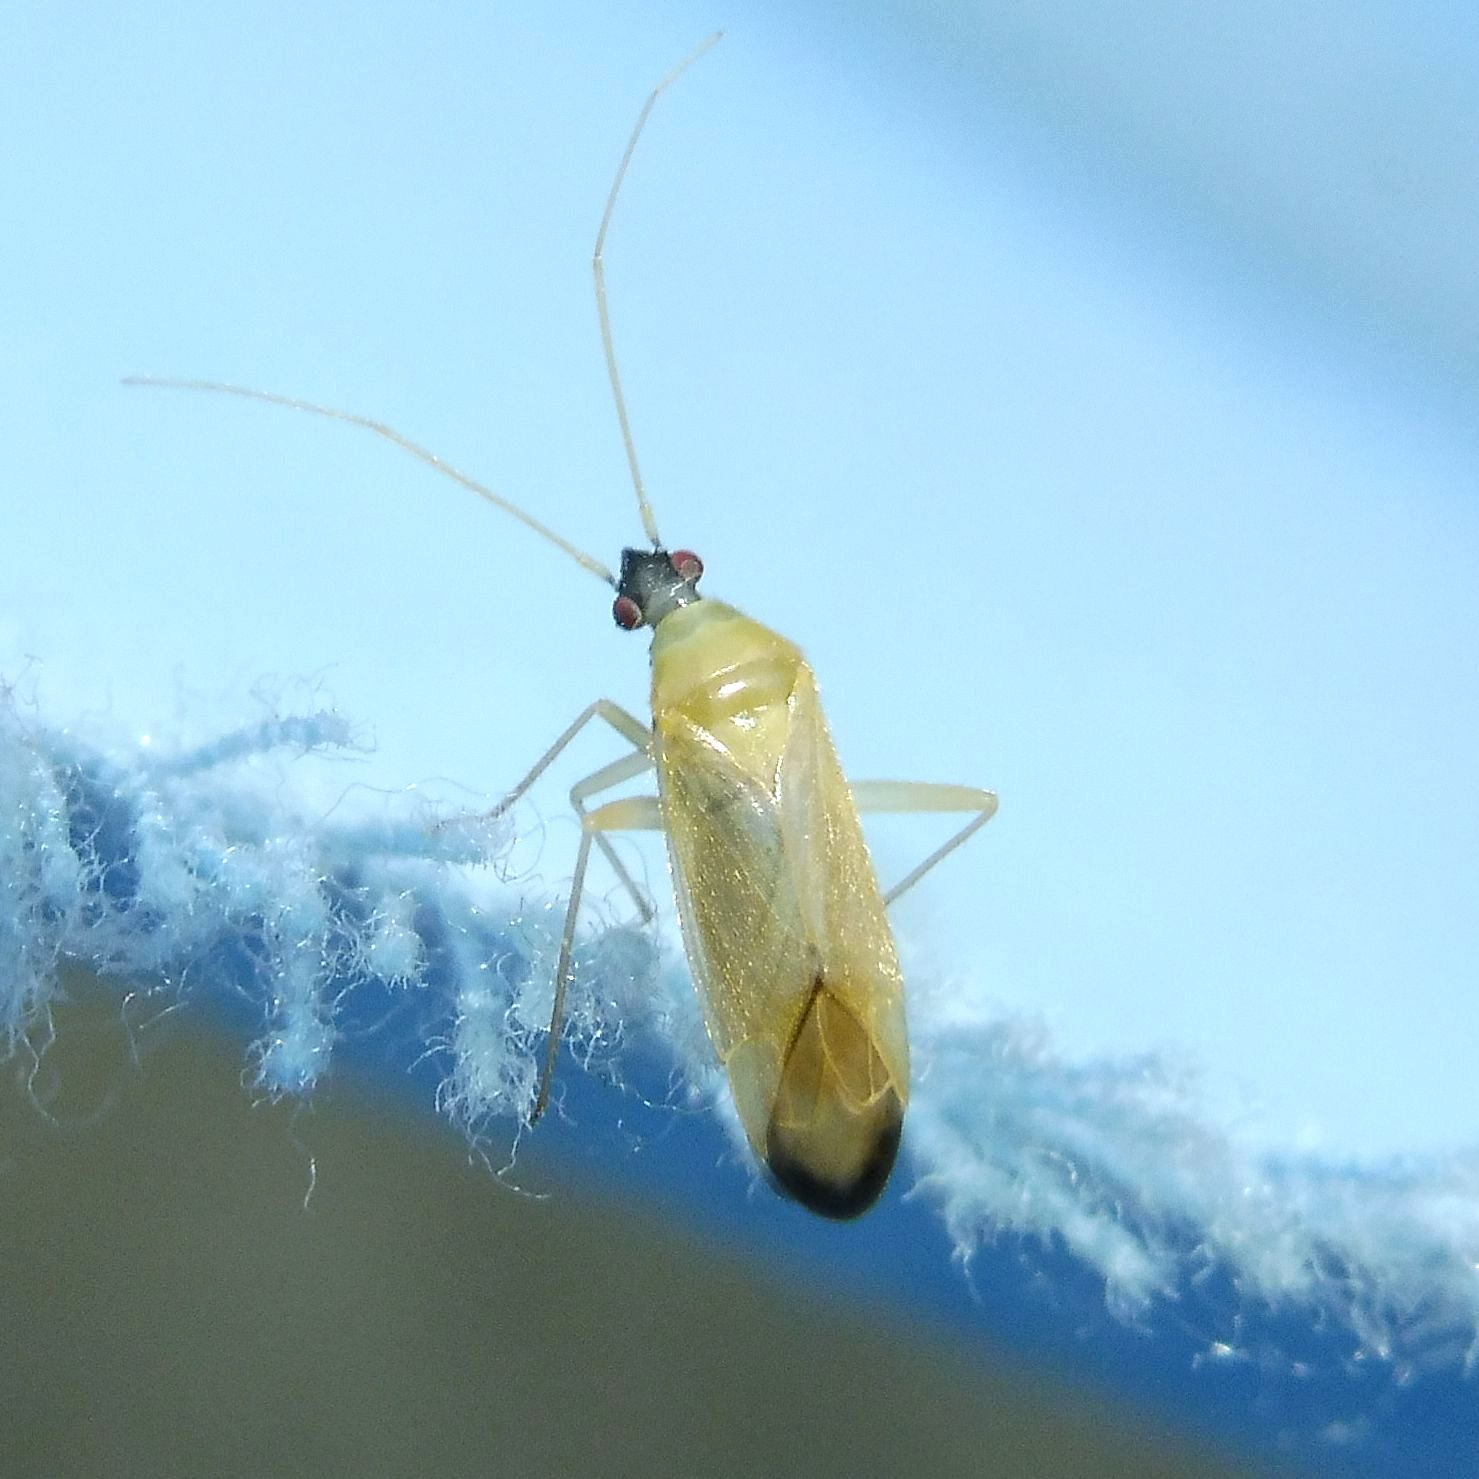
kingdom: Animalia
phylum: Arthropoda
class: Insecta
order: Hemiptera
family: Miridae
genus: Phylus
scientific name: Phylus melanocephalus
